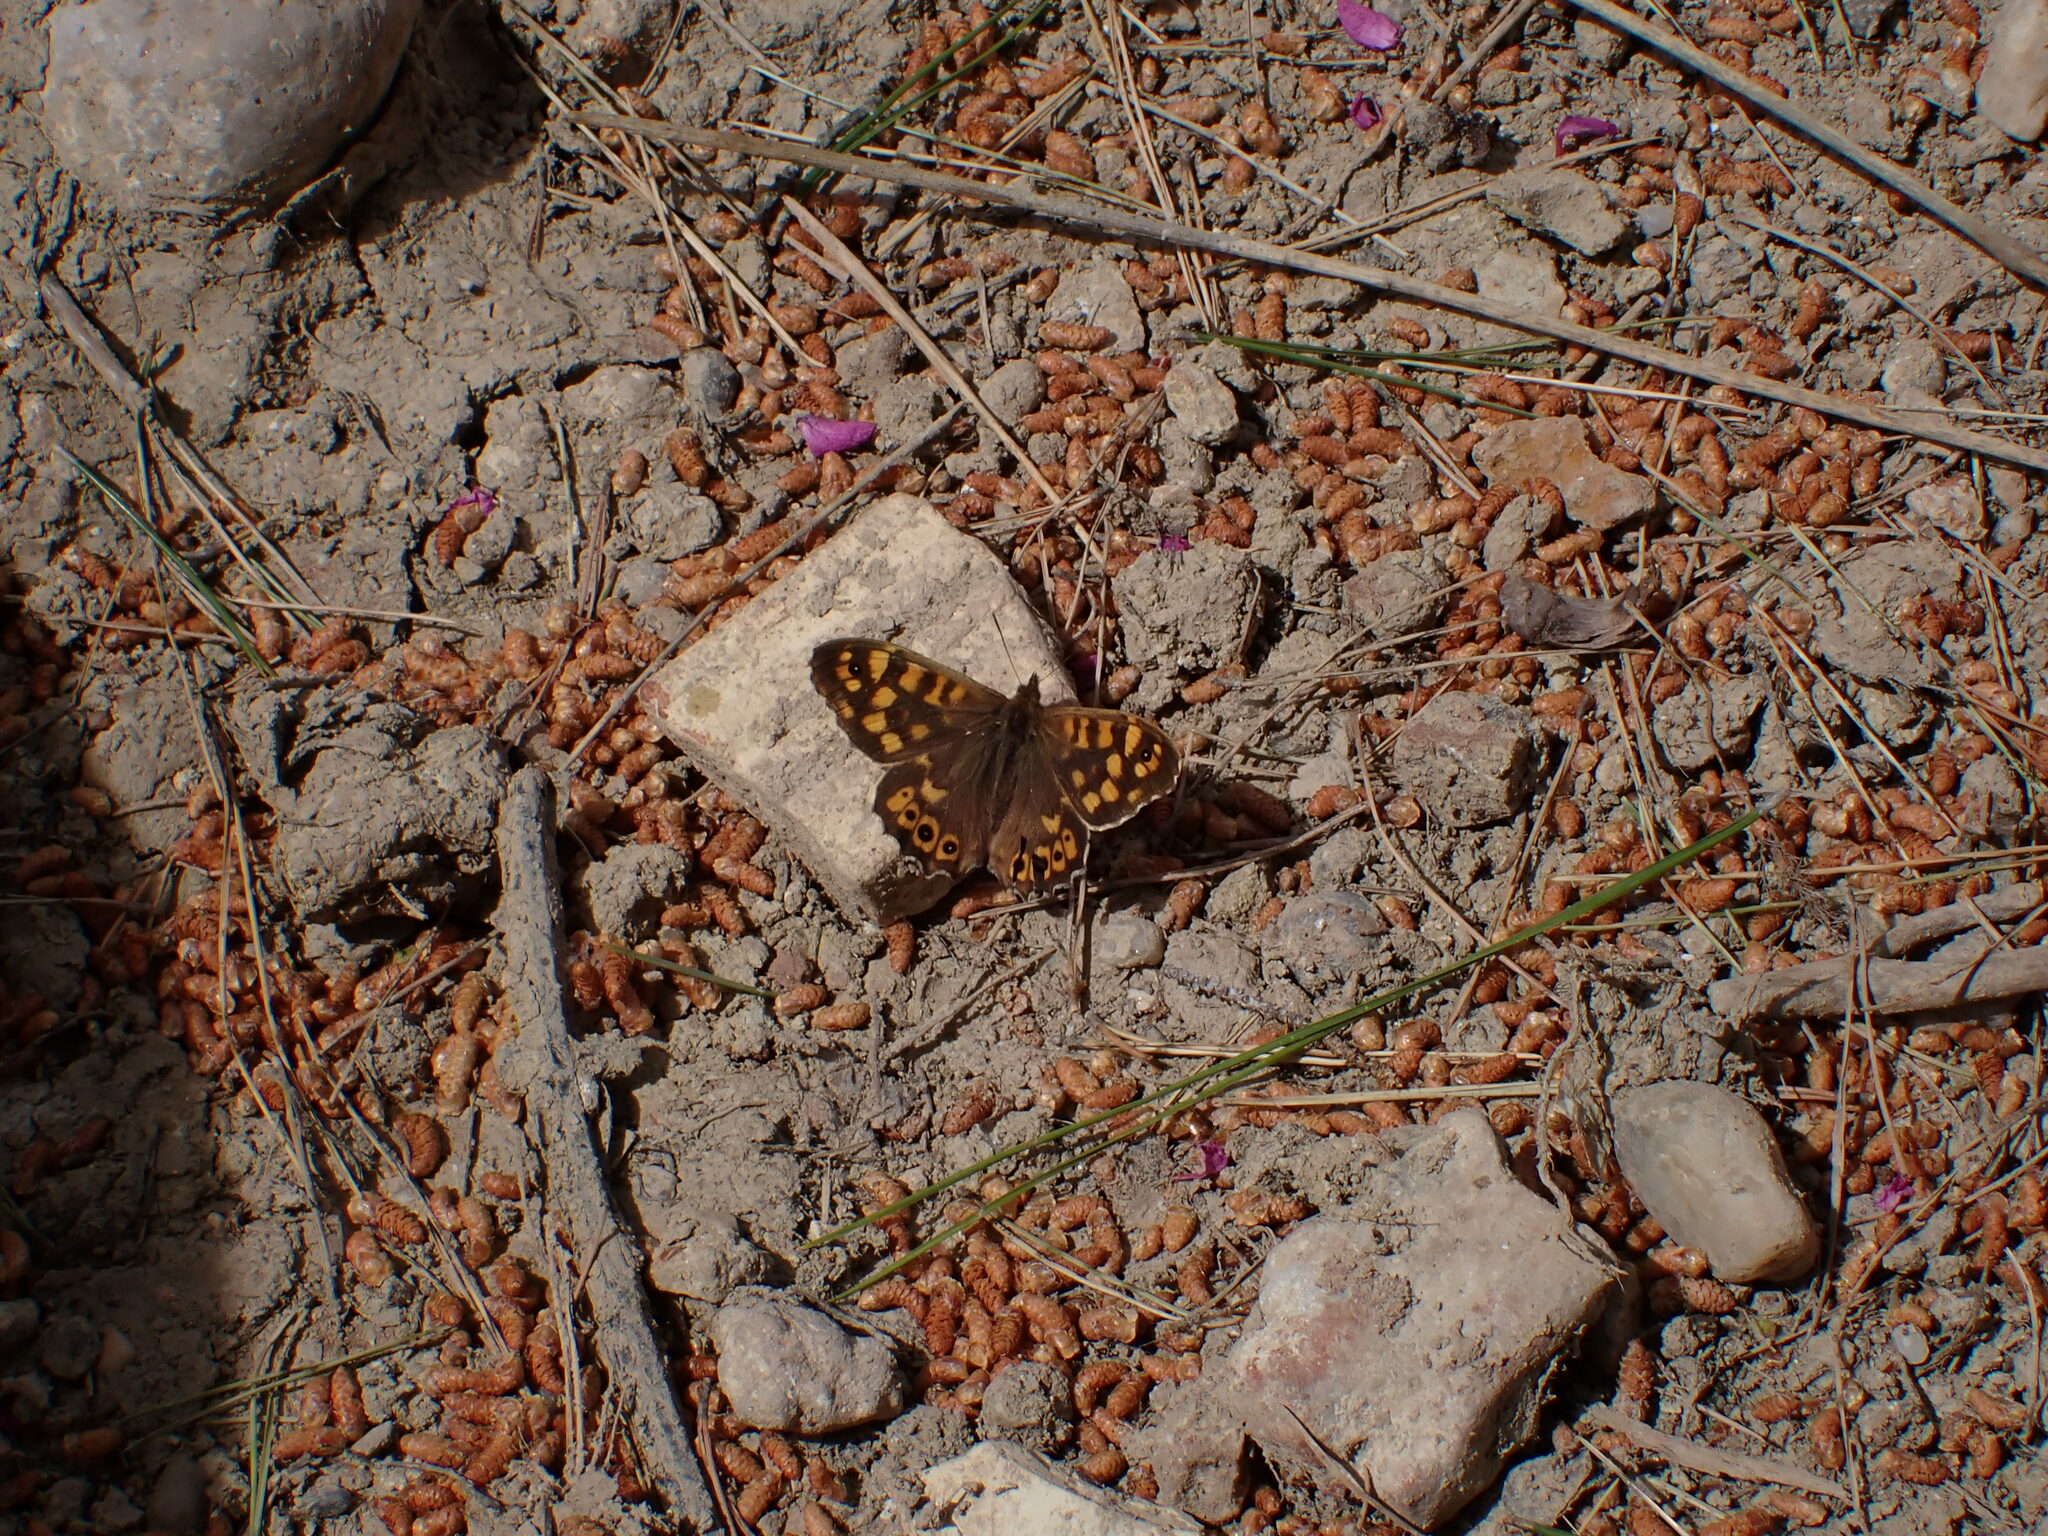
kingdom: Animalia
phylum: Arthropoda
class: Insecta
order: Lepidoptera
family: Nymphalidae
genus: Pararge
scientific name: Pararge aegeria
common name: Speckled wood
